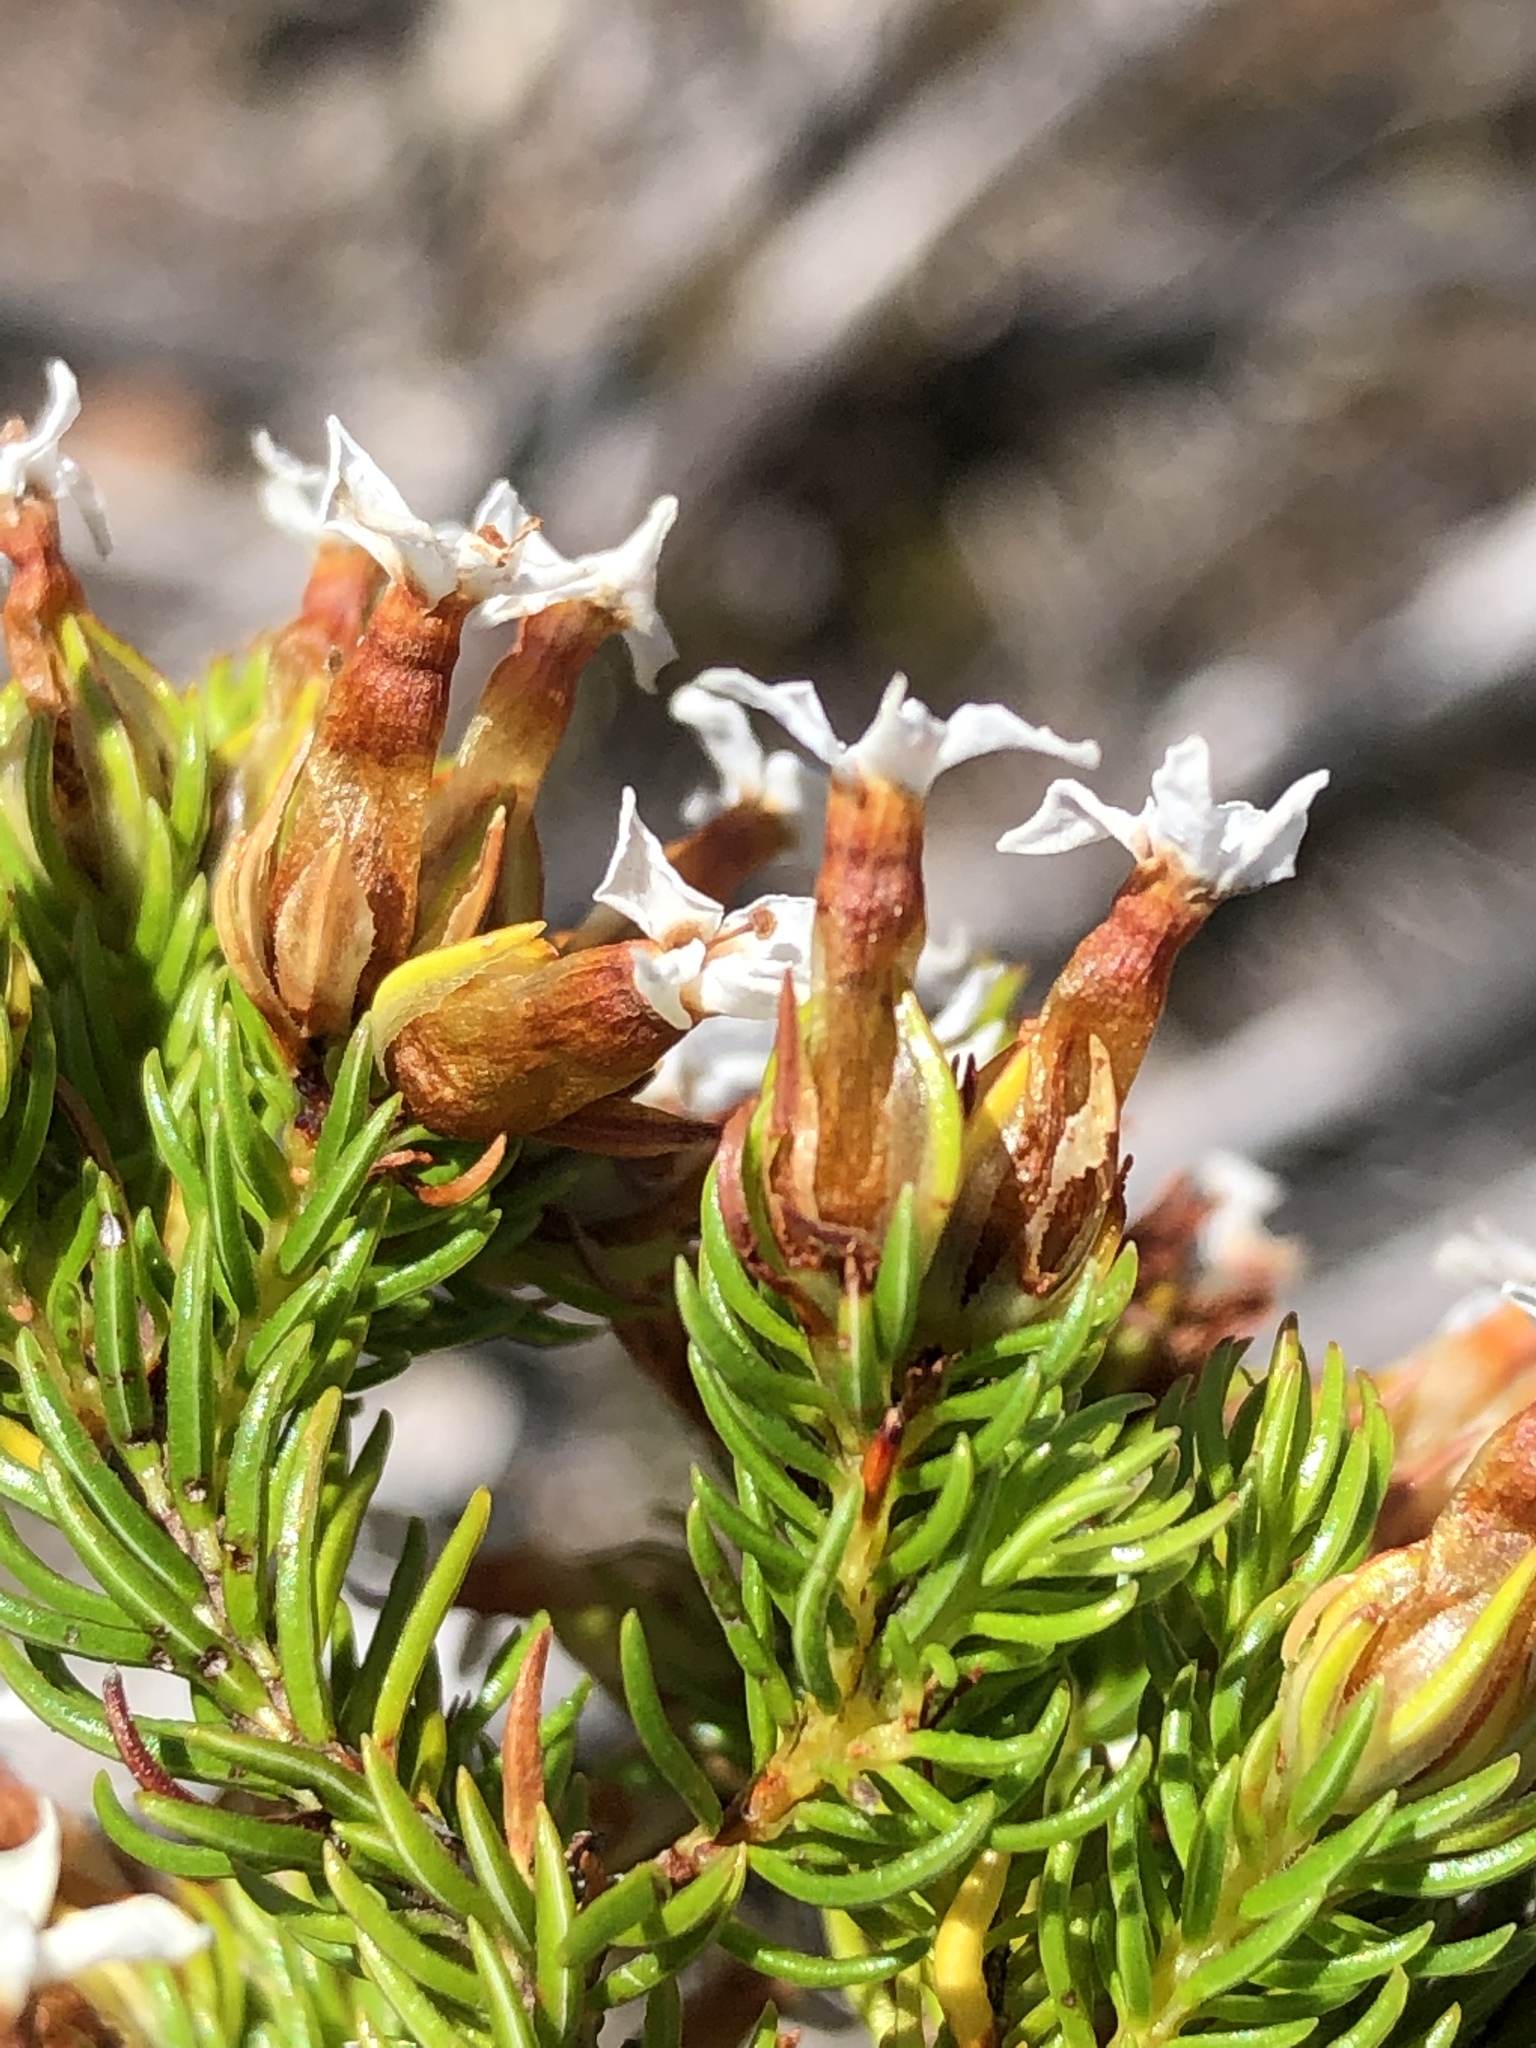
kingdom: Plantae
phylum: Tracheophyta
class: Magnoliopsida
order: Ericales
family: Ericaceae
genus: Erica
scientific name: Erica walkeria
